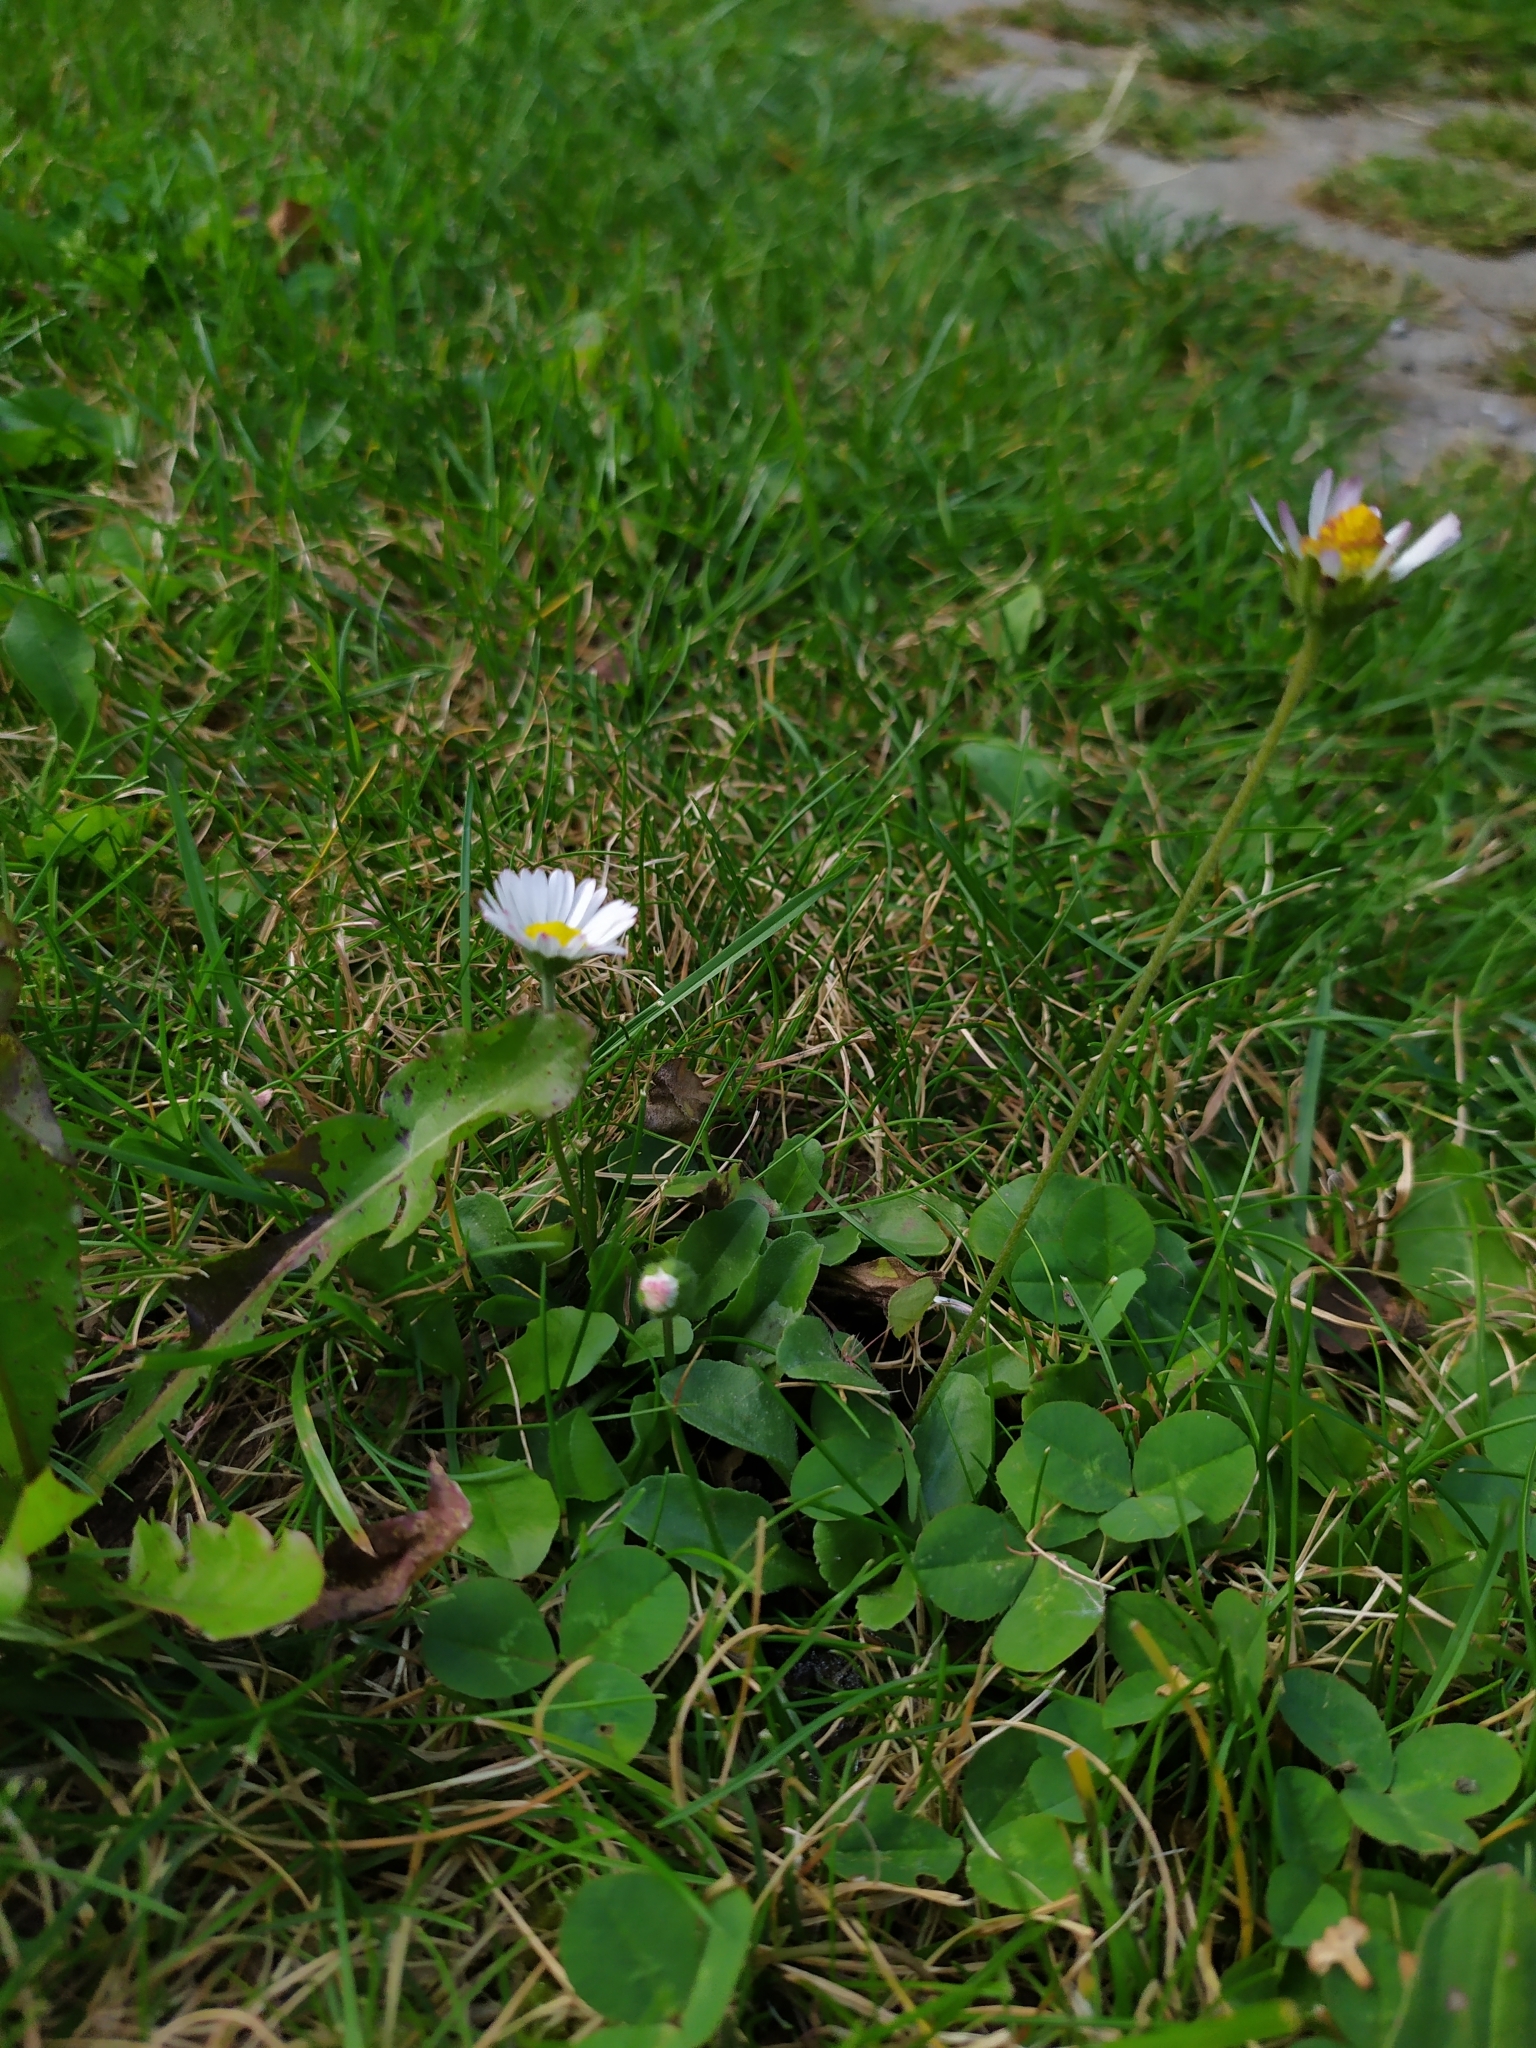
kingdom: Plantae
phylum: Tracheophyta
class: Magnoliopsida
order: Asterales
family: Asteraceae
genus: Bellis
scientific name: Bellis perennis
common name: Lawndaisy
